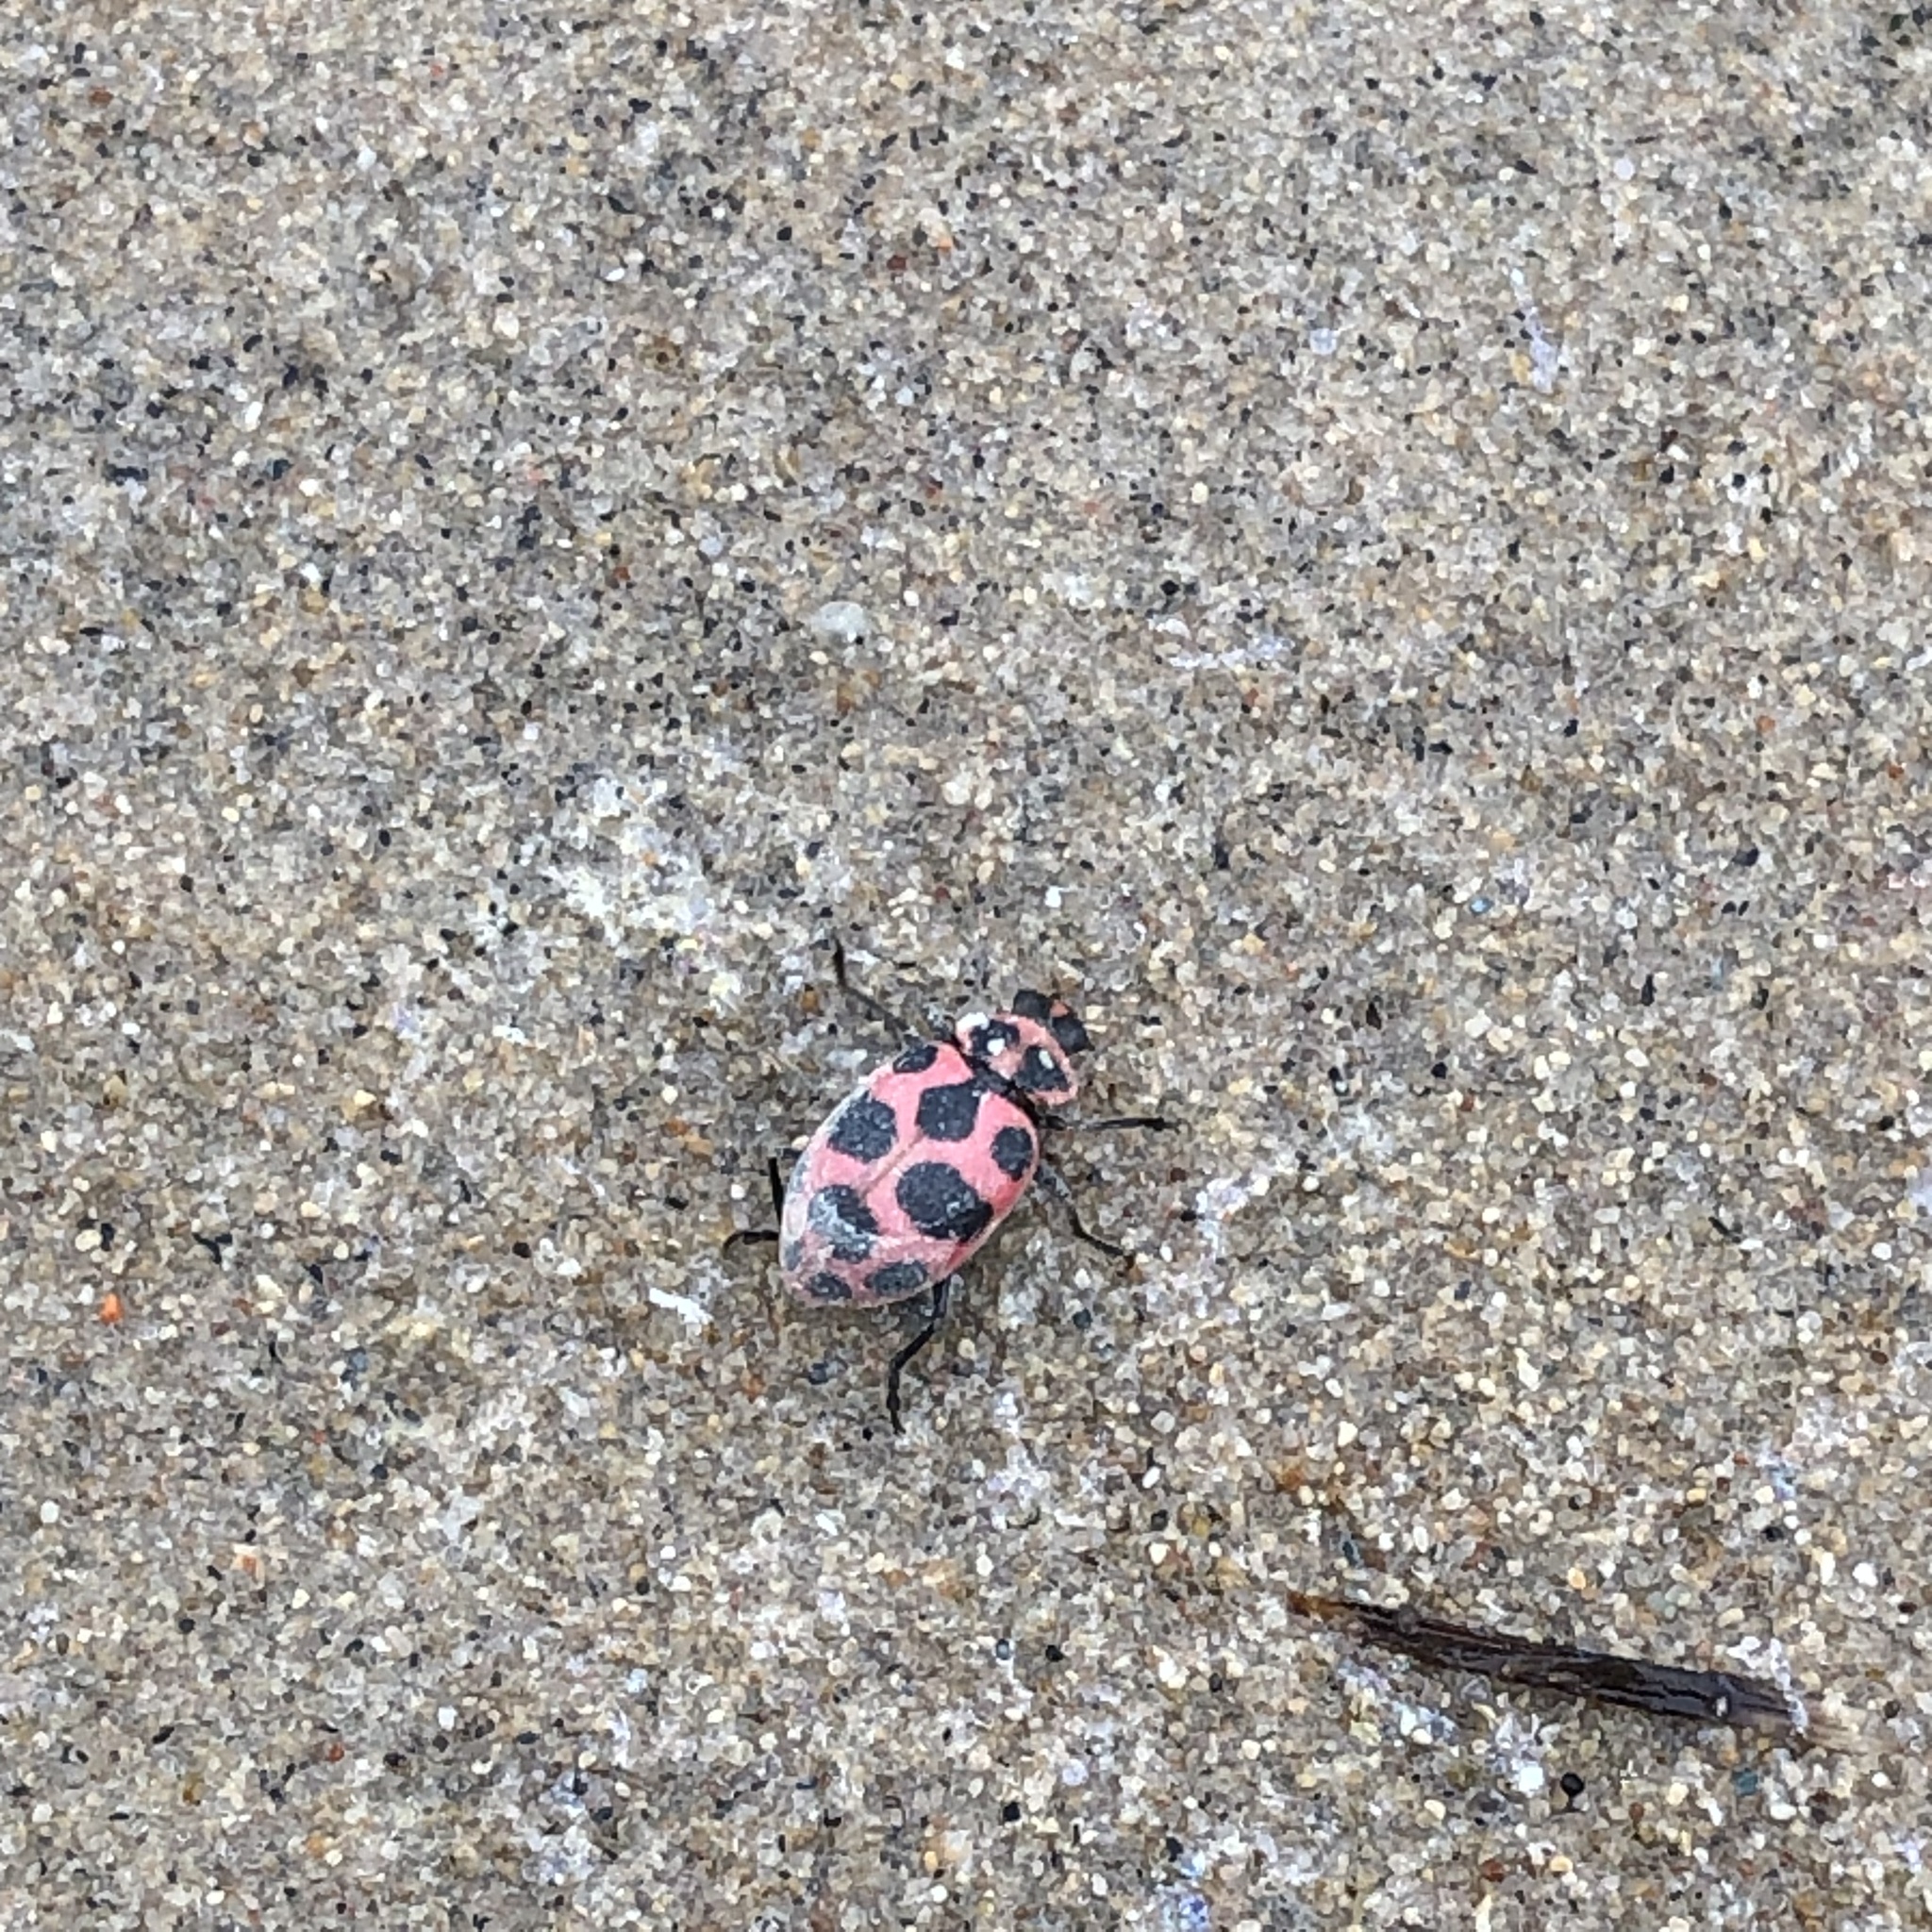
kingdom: Animalia
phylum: Arthropoda
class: Insecta
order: Coleoptera
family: Coccinellidae
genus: Coleomegilla
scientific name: Coleomegilla maculata
